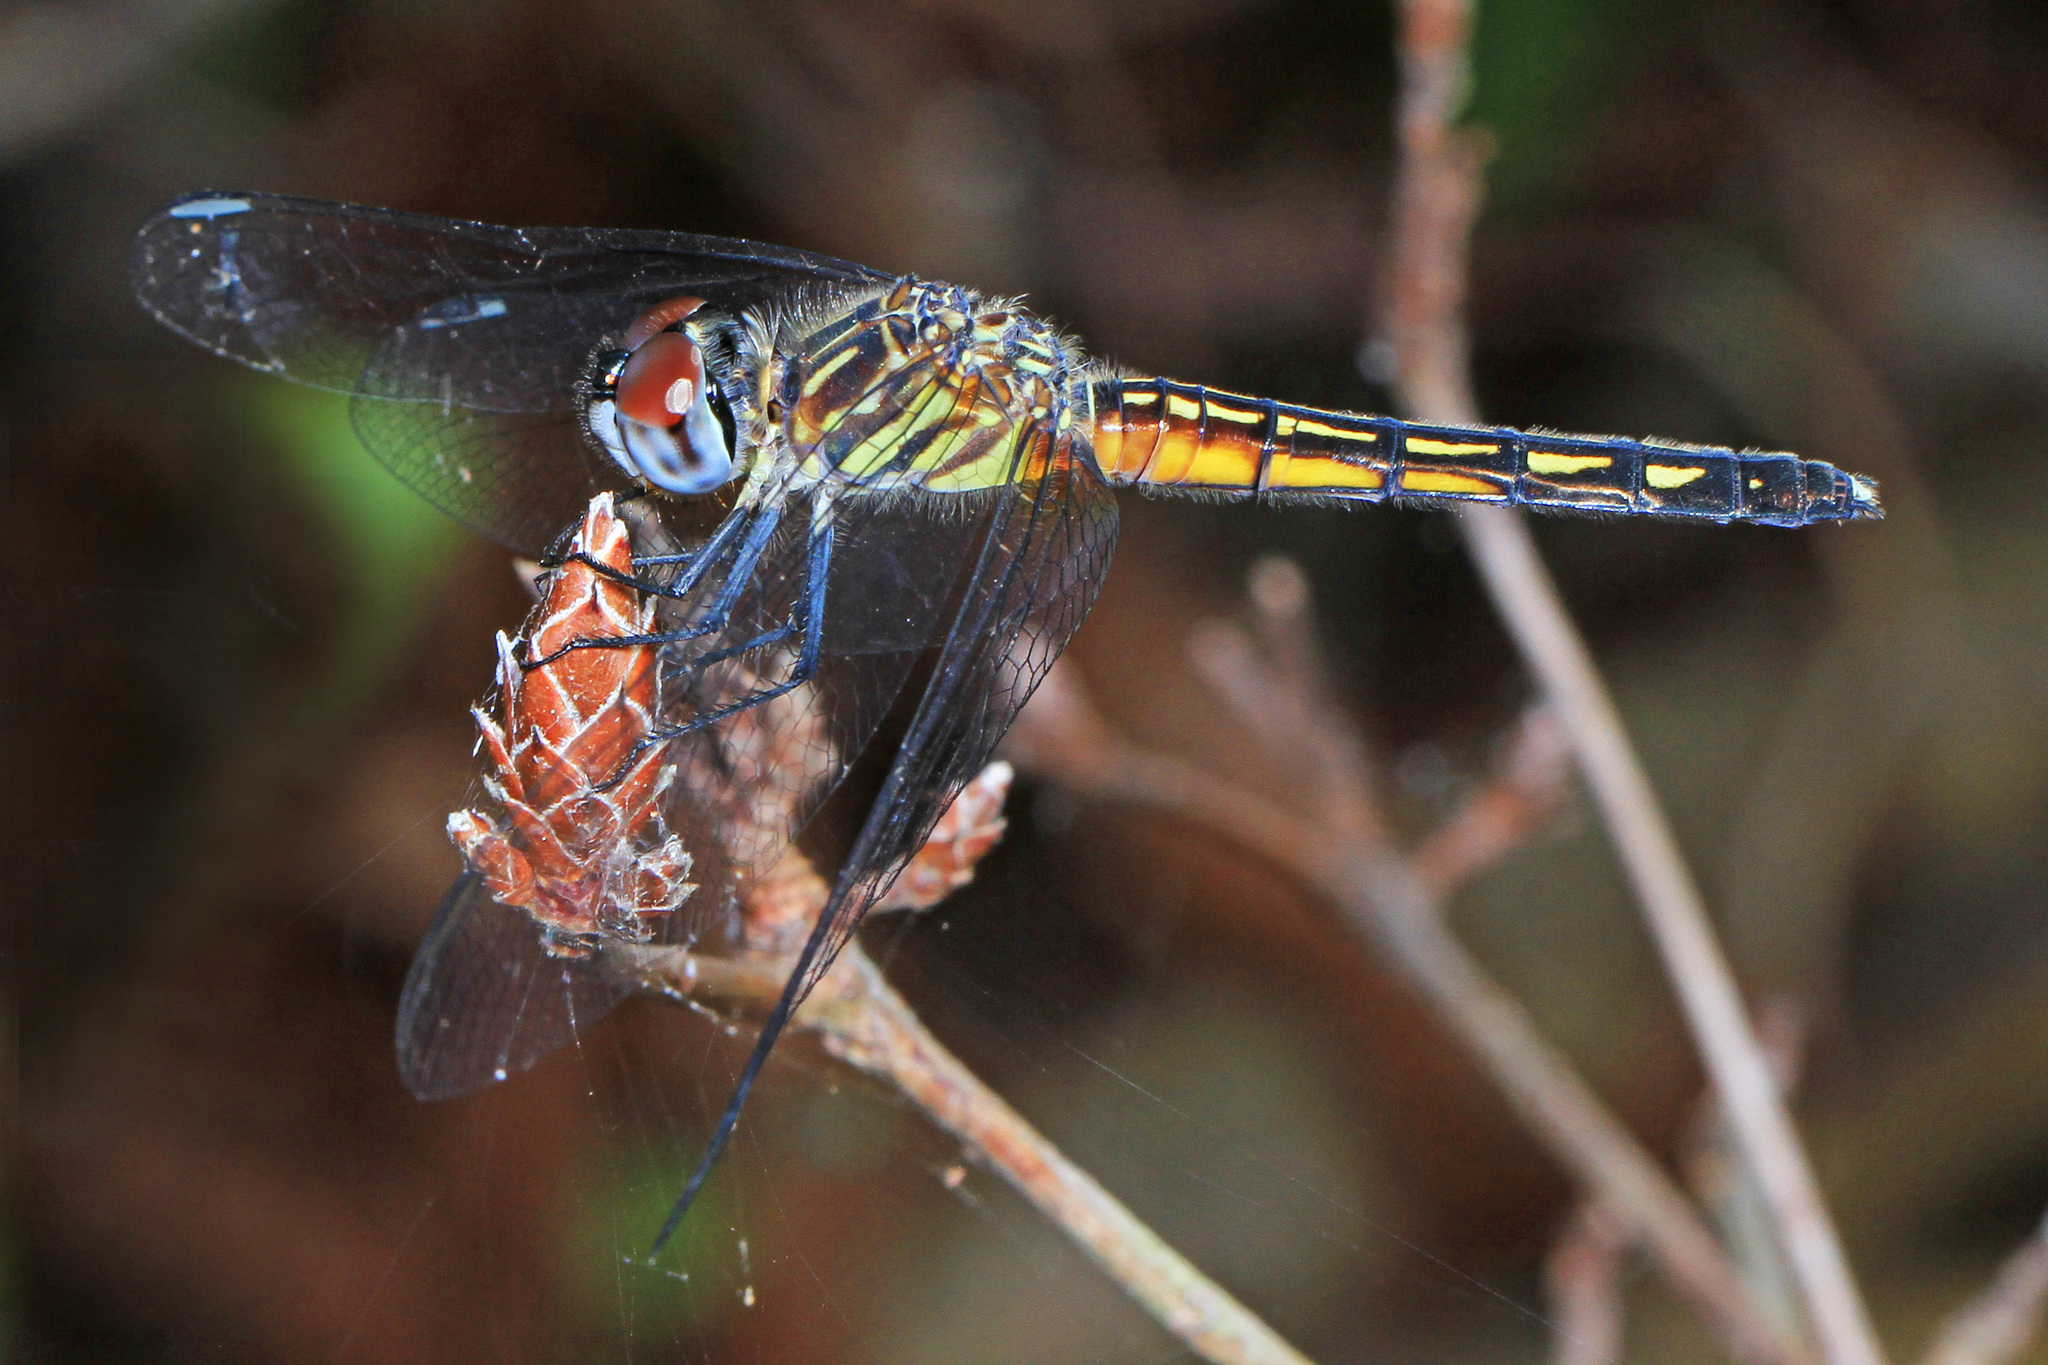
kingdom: Animalia
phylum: Arthropoda
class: Insecta
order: Odonata
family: Libellulidae
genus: Pachydiplax
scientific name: Pachydiplax longipennis
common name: Blue dasher
